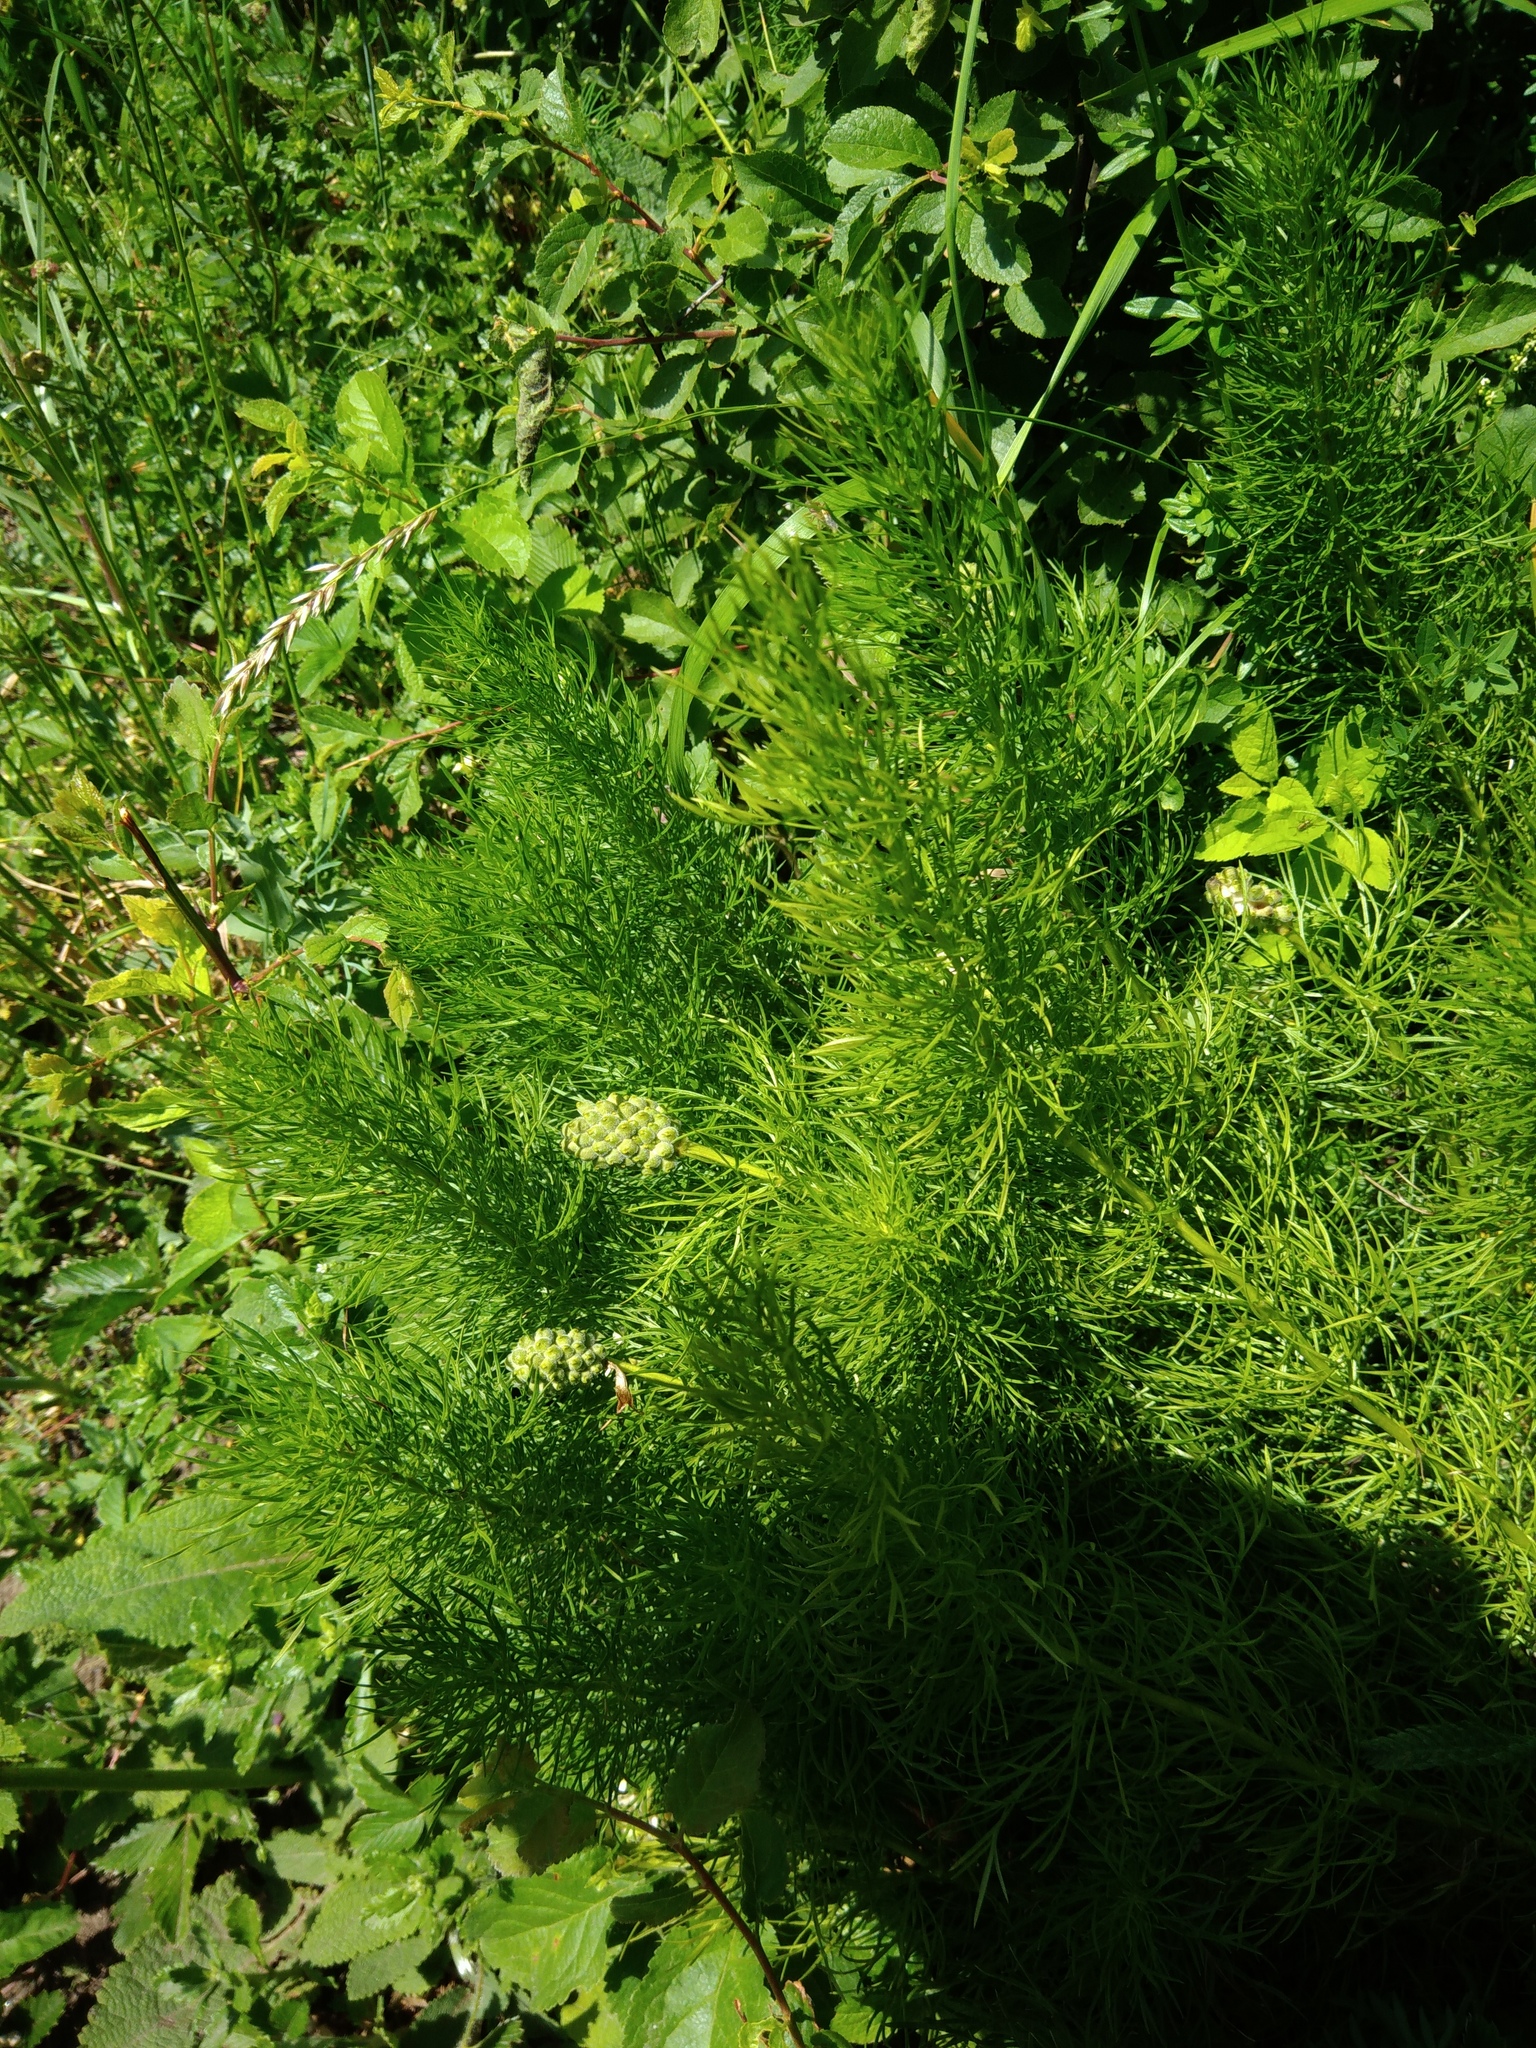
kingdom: Plantae
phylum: Tracheophyta
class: Magnoliopsida
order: Ranunculales
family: Ranunculaceae
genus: Adonis
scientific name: Adonis vernalis
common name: Yellow pheasants-eye
